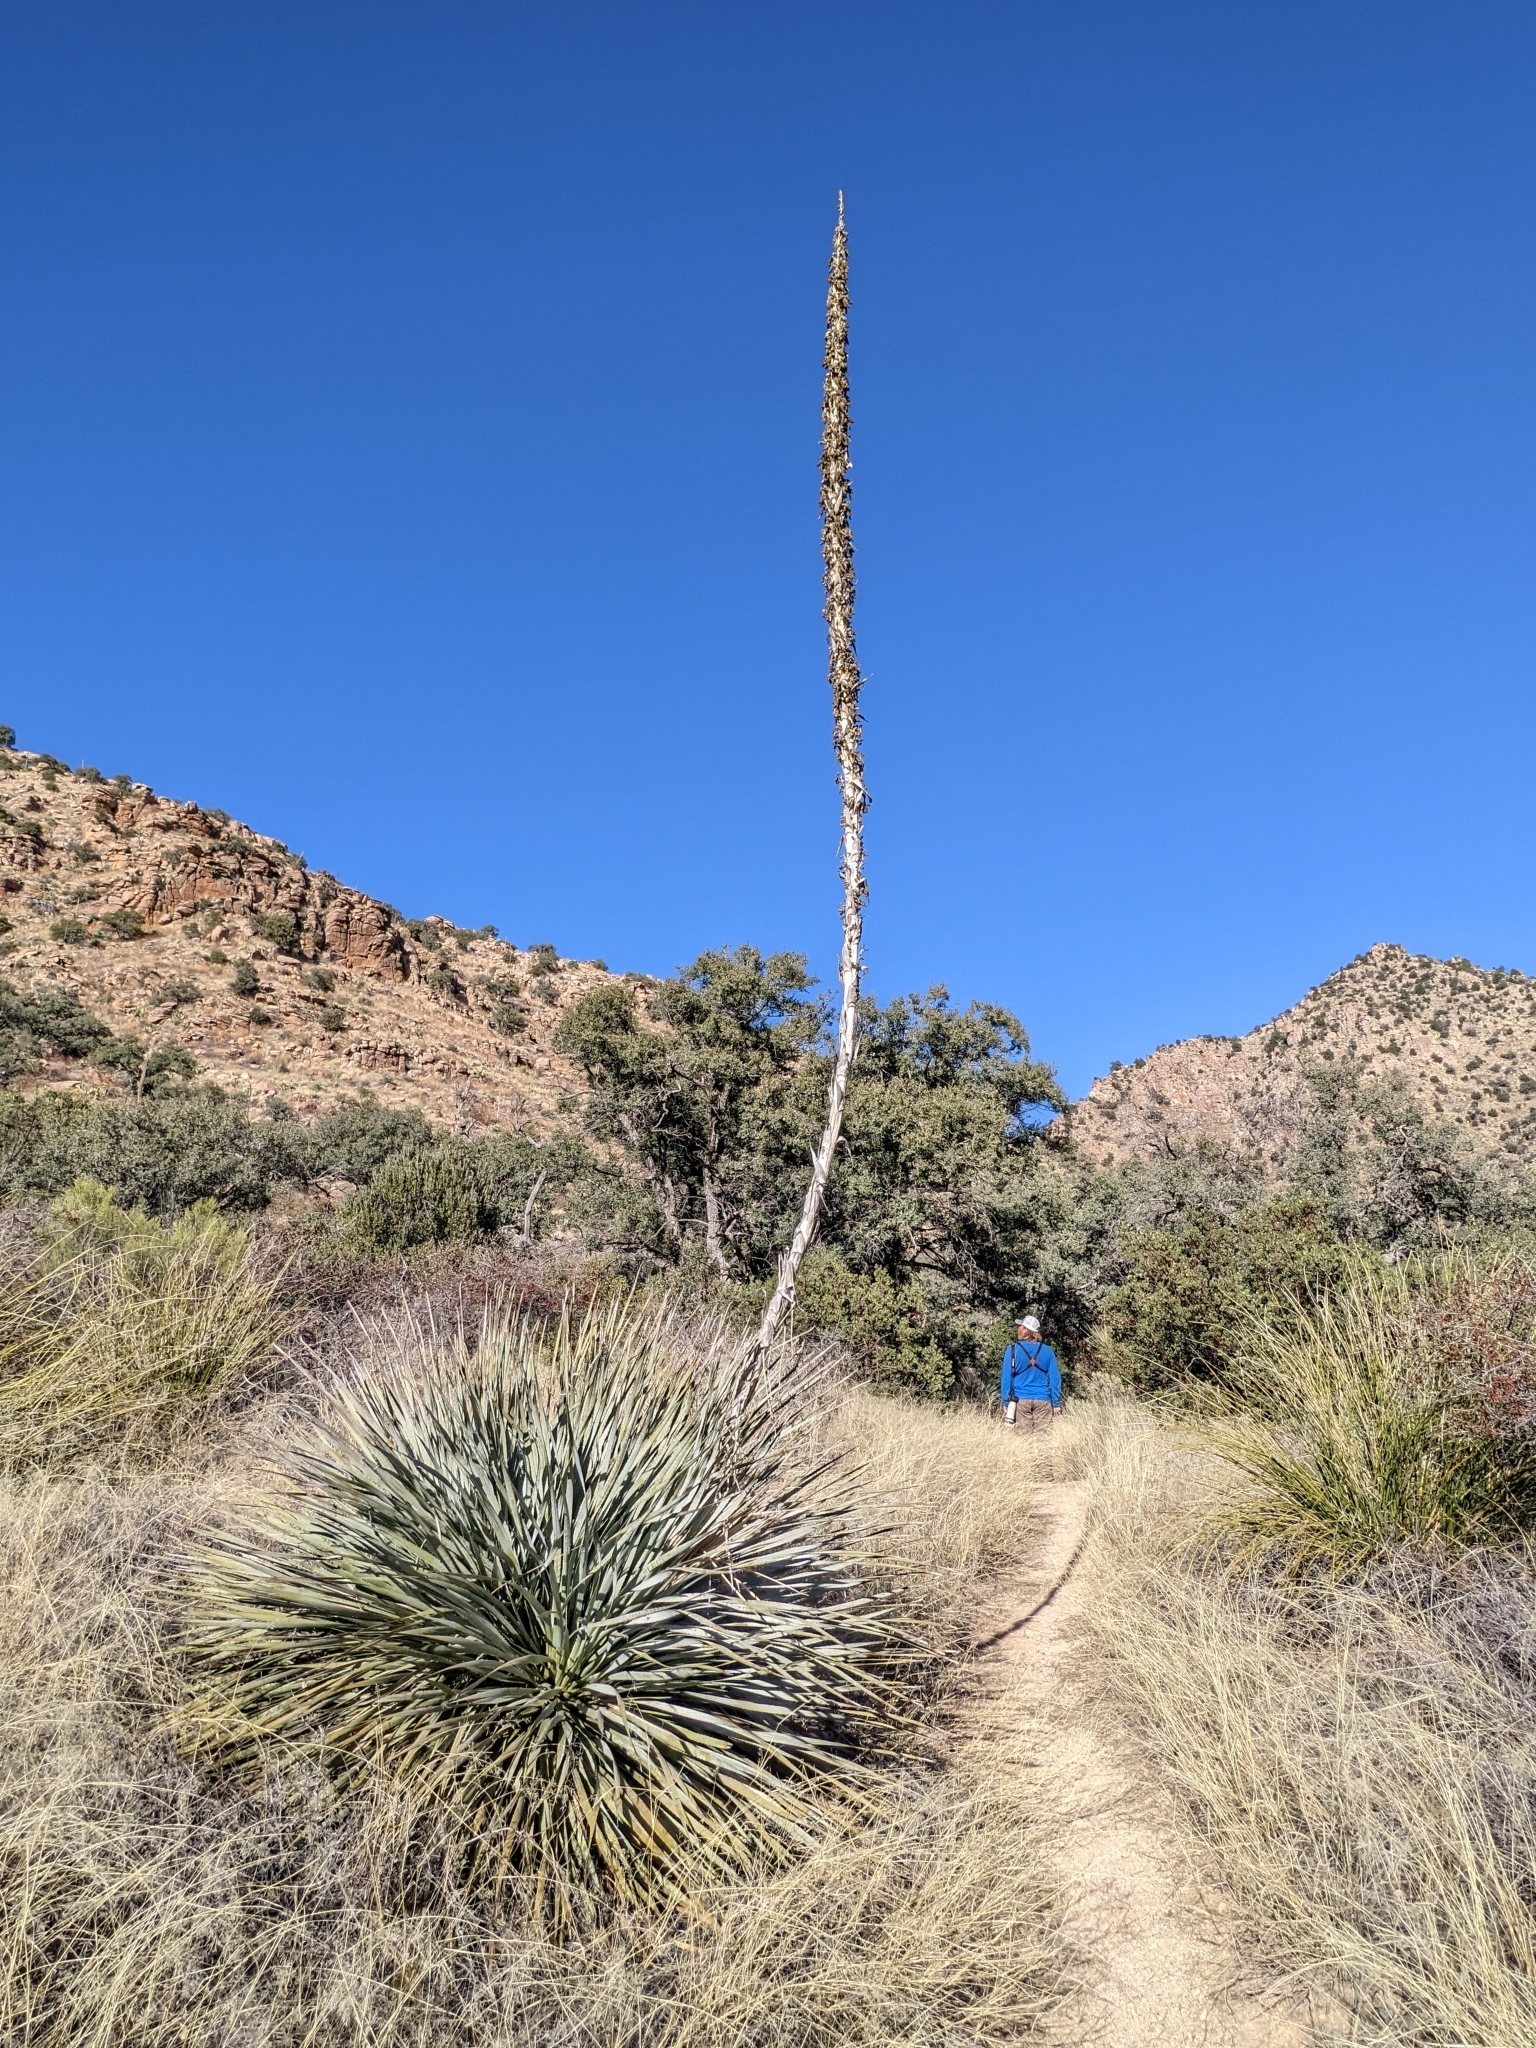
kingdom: Plantae
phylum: Tracheophyta
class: Liliopsida
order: Asparagales
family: Asparagaceae
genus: Dasylirion
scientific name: Dasylirion wheeleri
